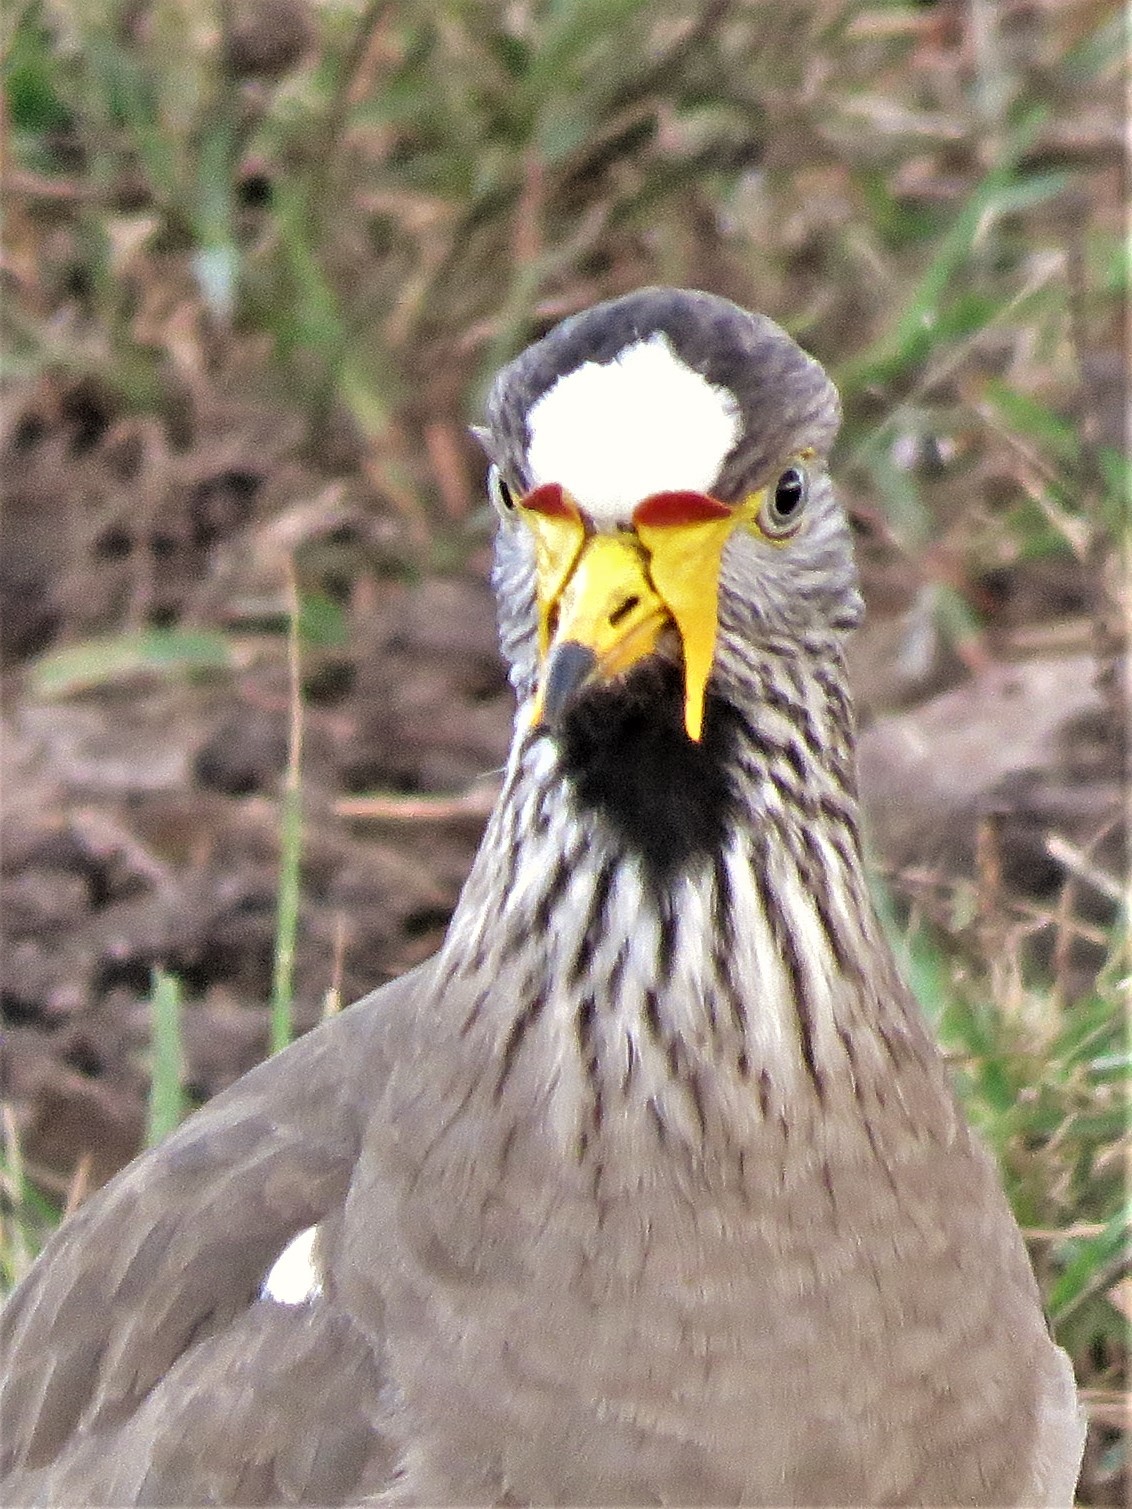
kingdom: Animalia
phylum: Chordata
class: Aves
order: Charadriiformes
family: Charadriidae
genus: Vanellus
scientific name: Vanellus senegallus
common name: African wattled lapwing
